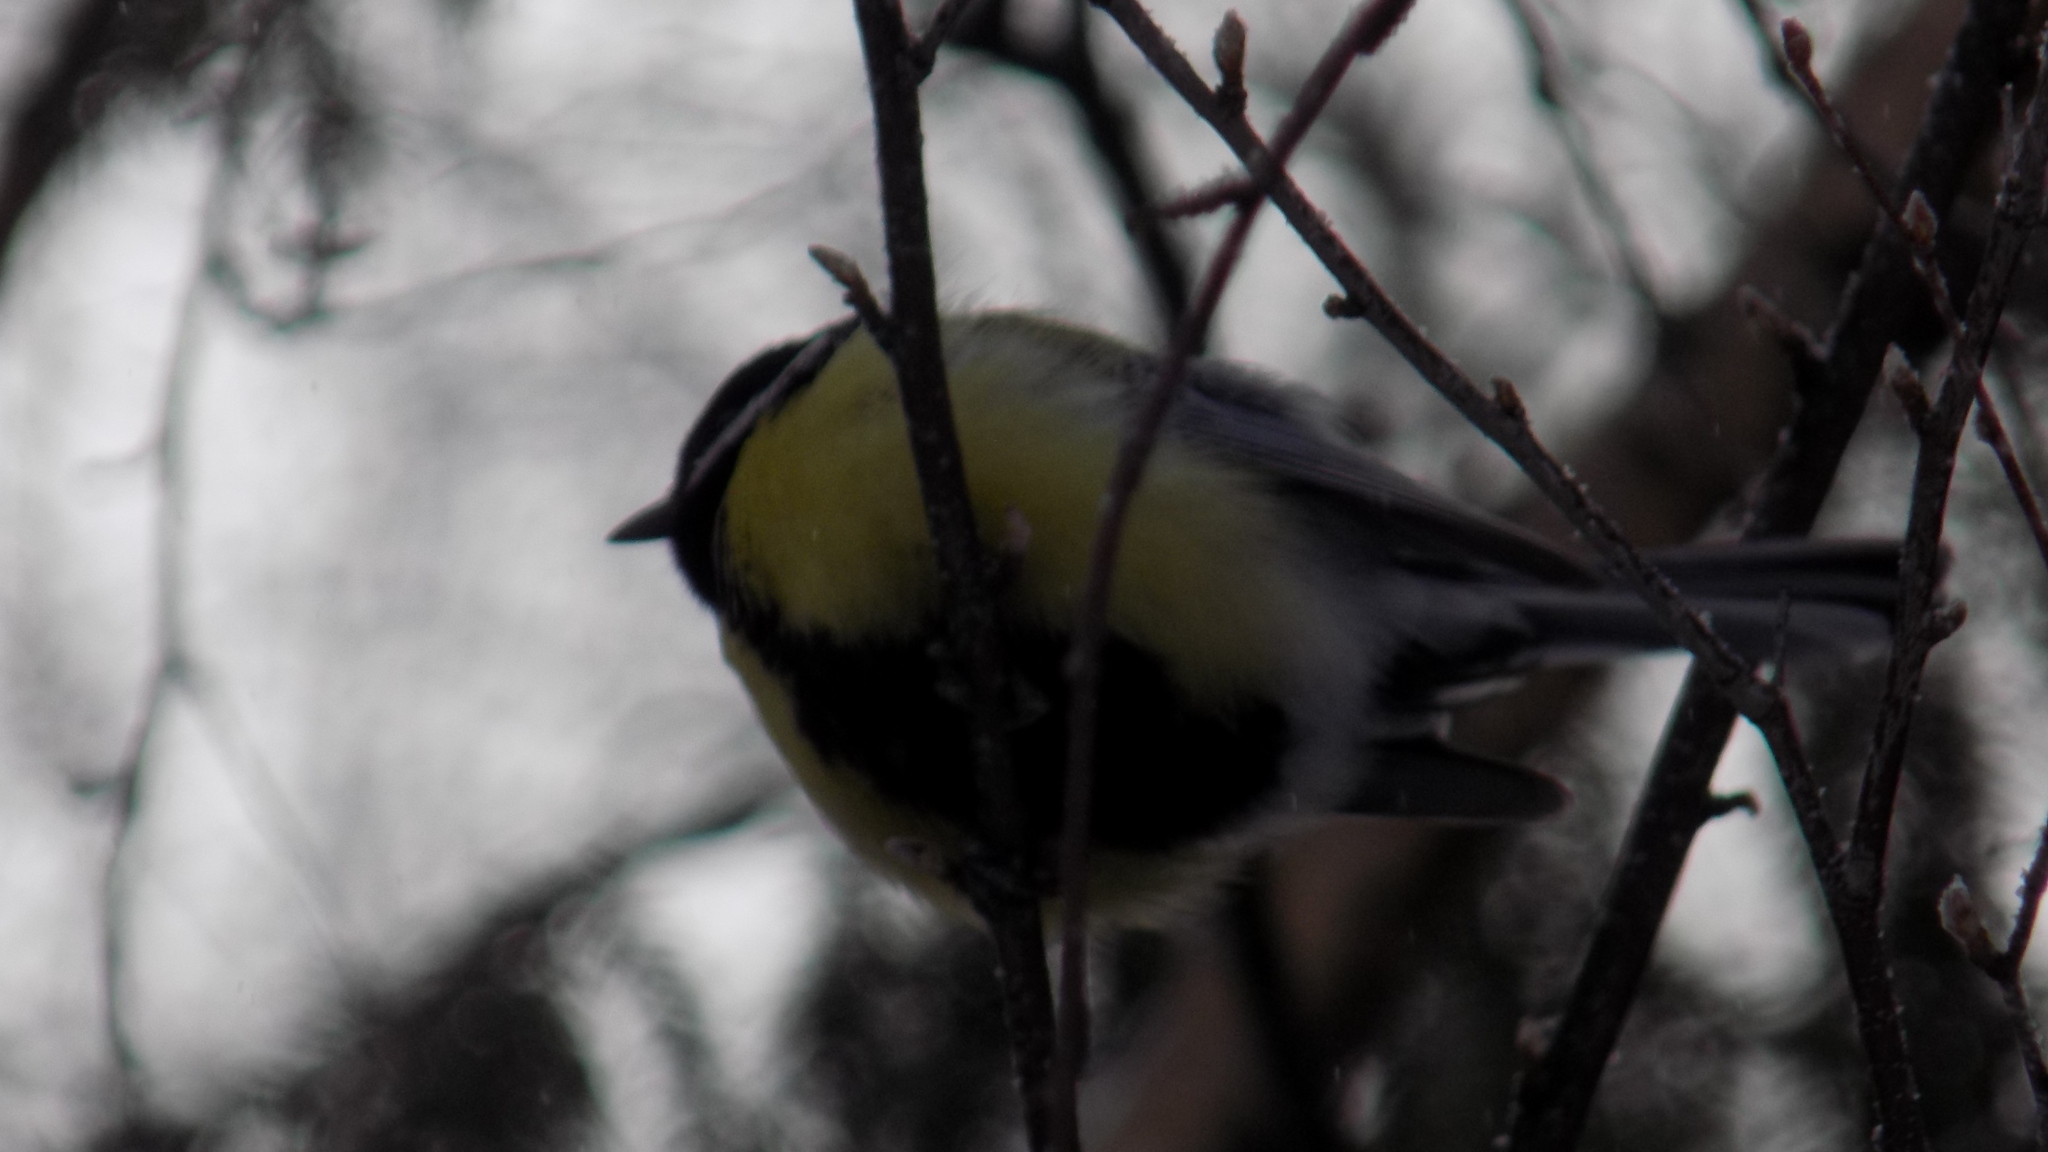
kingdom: Animalia
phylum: Chordata
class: Aves
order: Passeriformes
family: Paridae
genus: Parus
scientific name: Parus major
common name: Great tit
